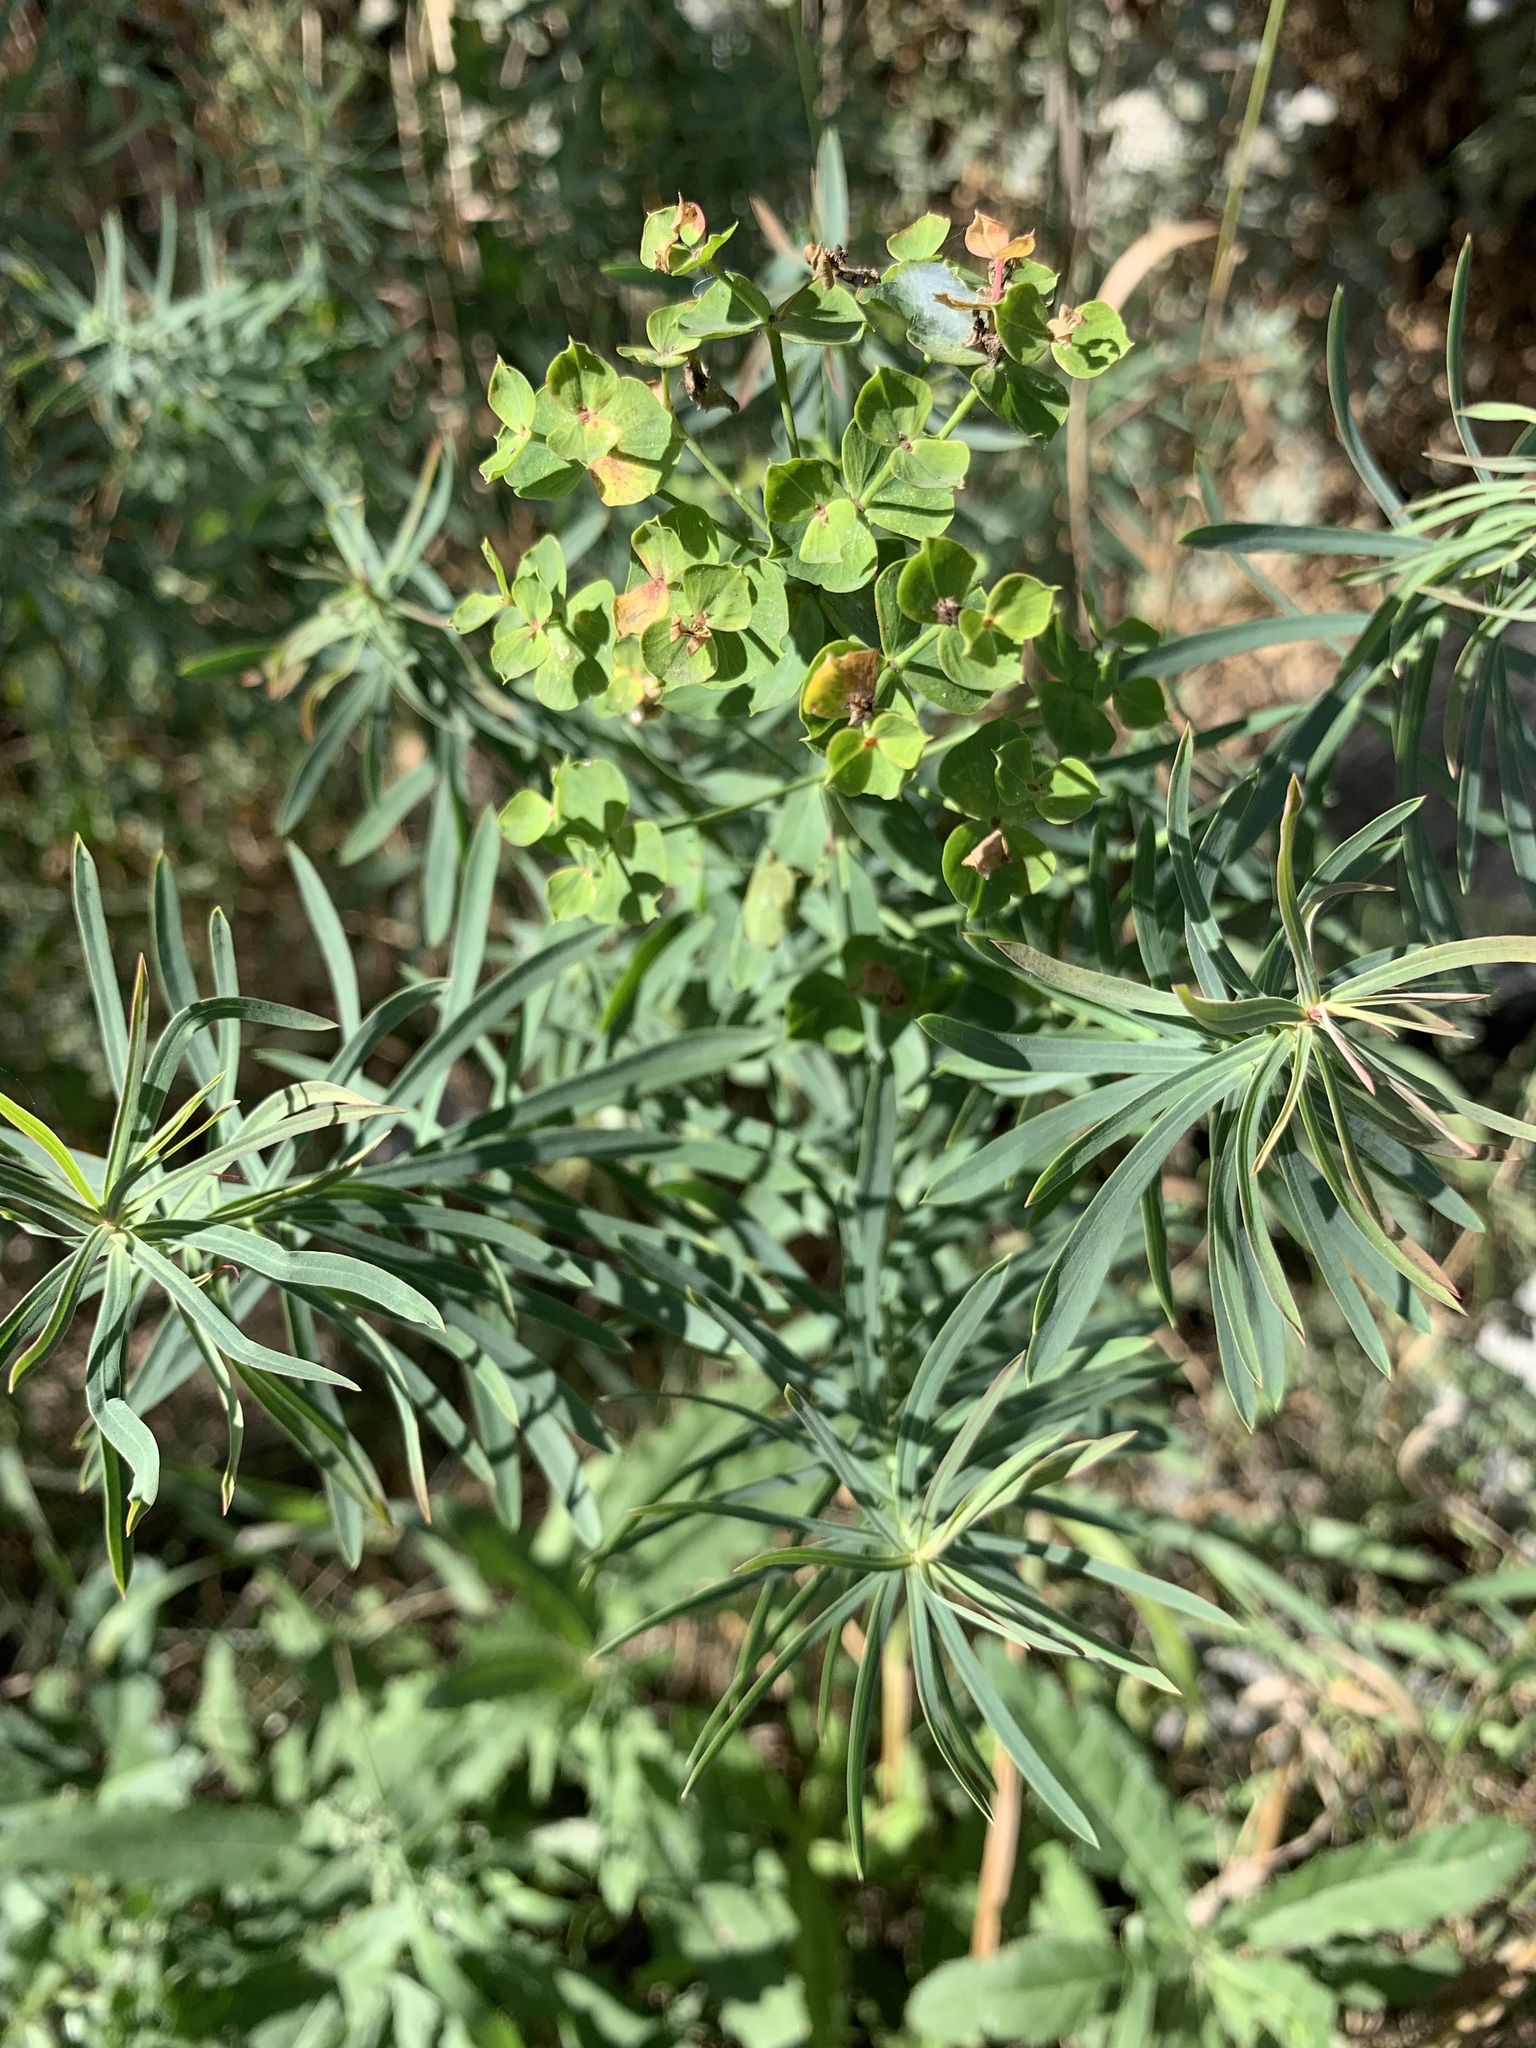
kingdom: Plantae
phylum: Tracheophyta
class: Magnoliopsida
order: Malpighiales
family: Euphorbiaceae
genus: Euphorbia
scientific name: Euphorbia virgata
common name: Leafy spurge
